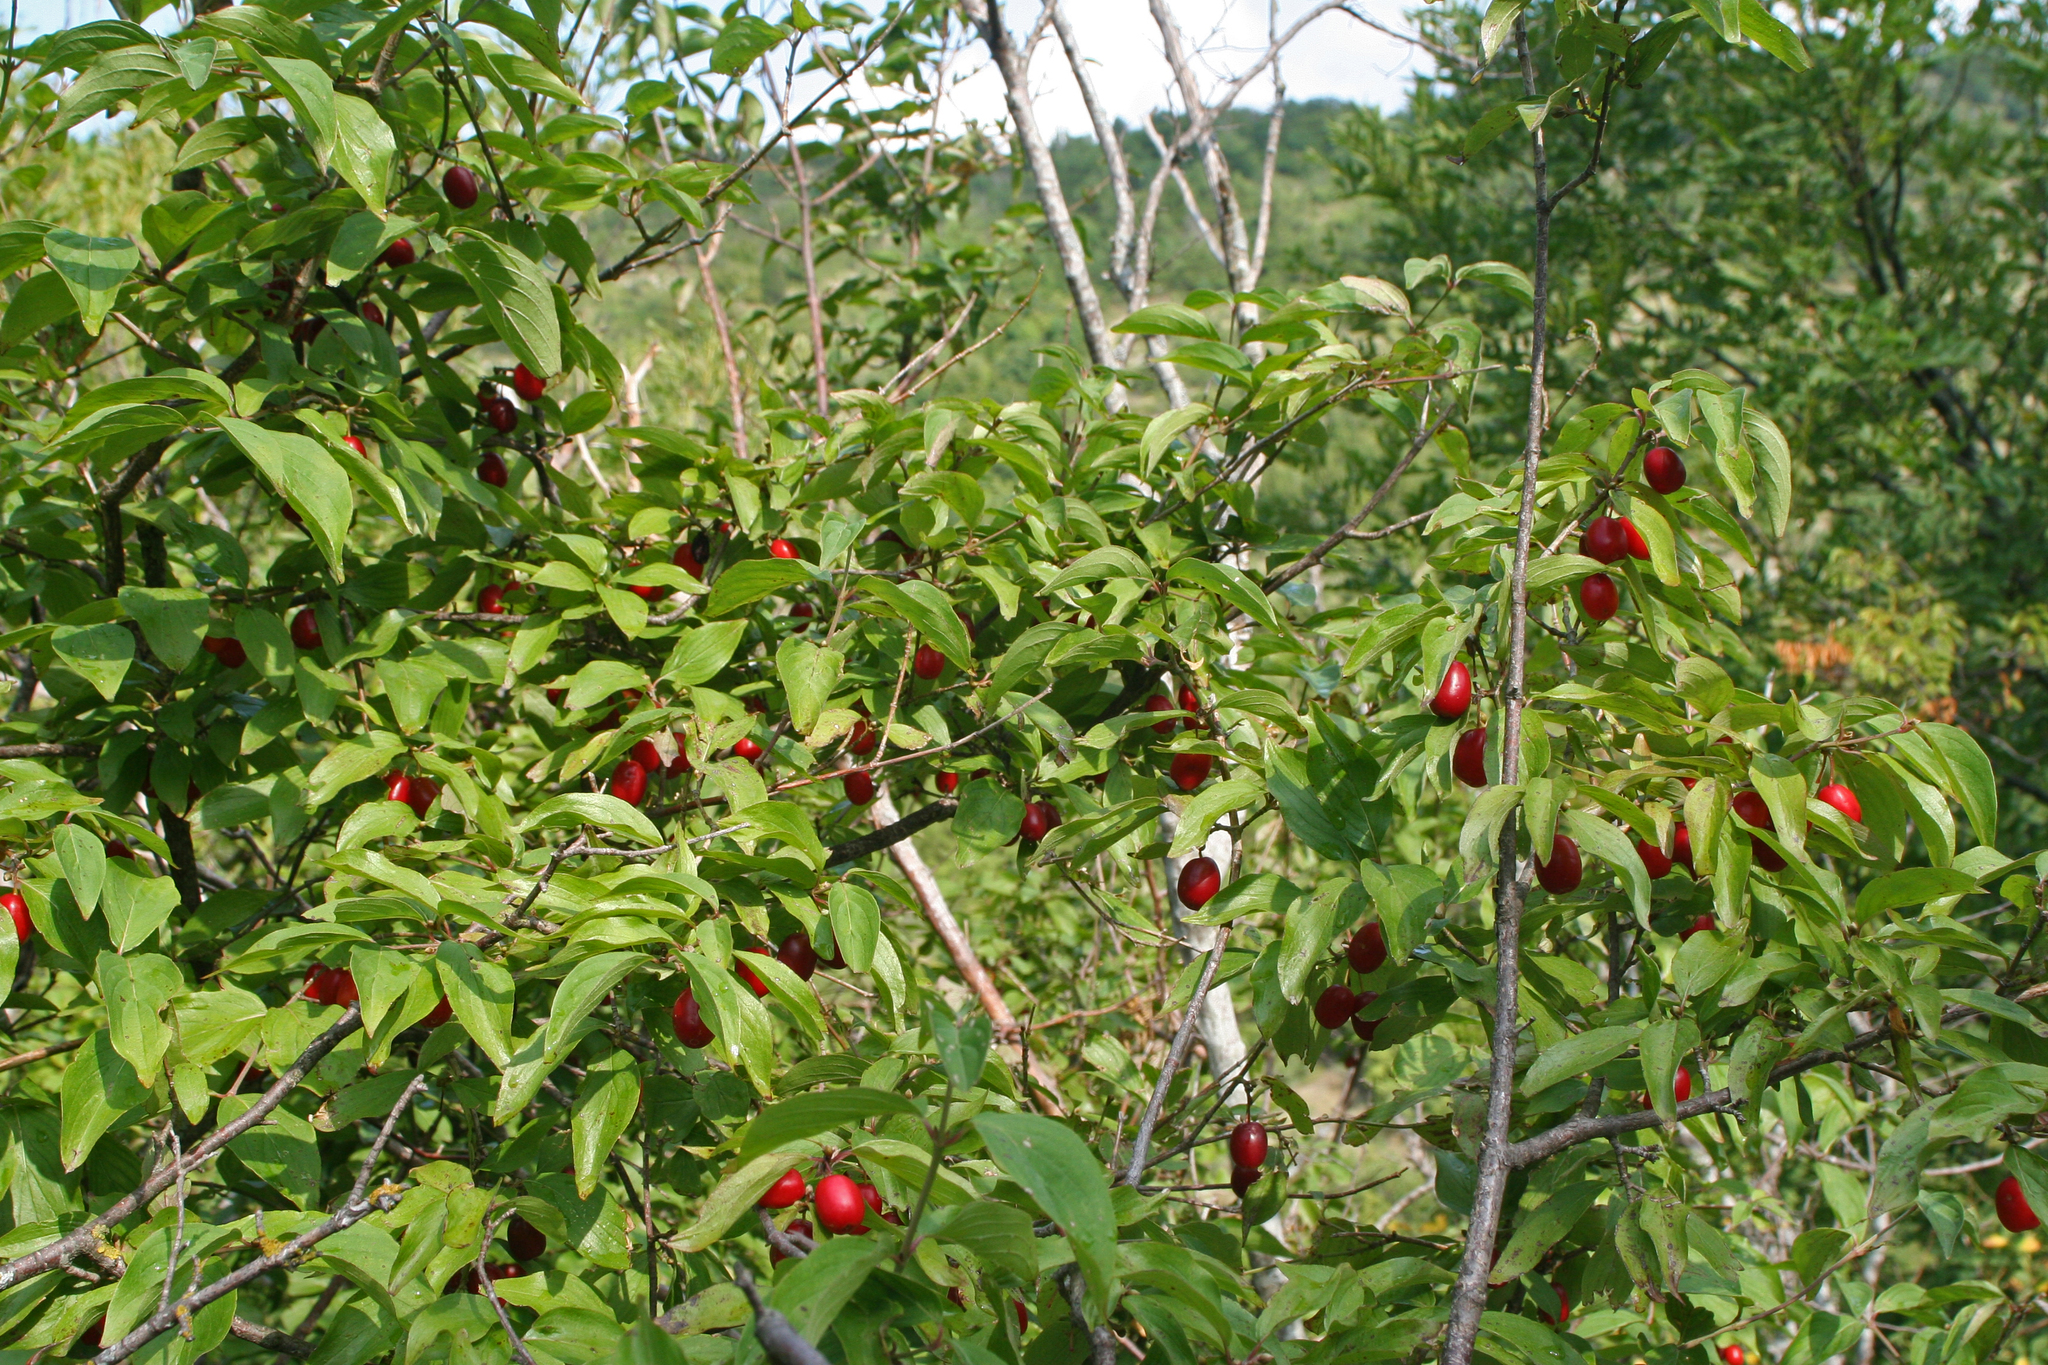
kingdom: Plantae
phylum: Tracheophyta
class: Magnoliopsida
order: Cornales
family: Cornaceae
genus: Cornus
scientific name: Cornus mas
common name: Cornelian-cherry
